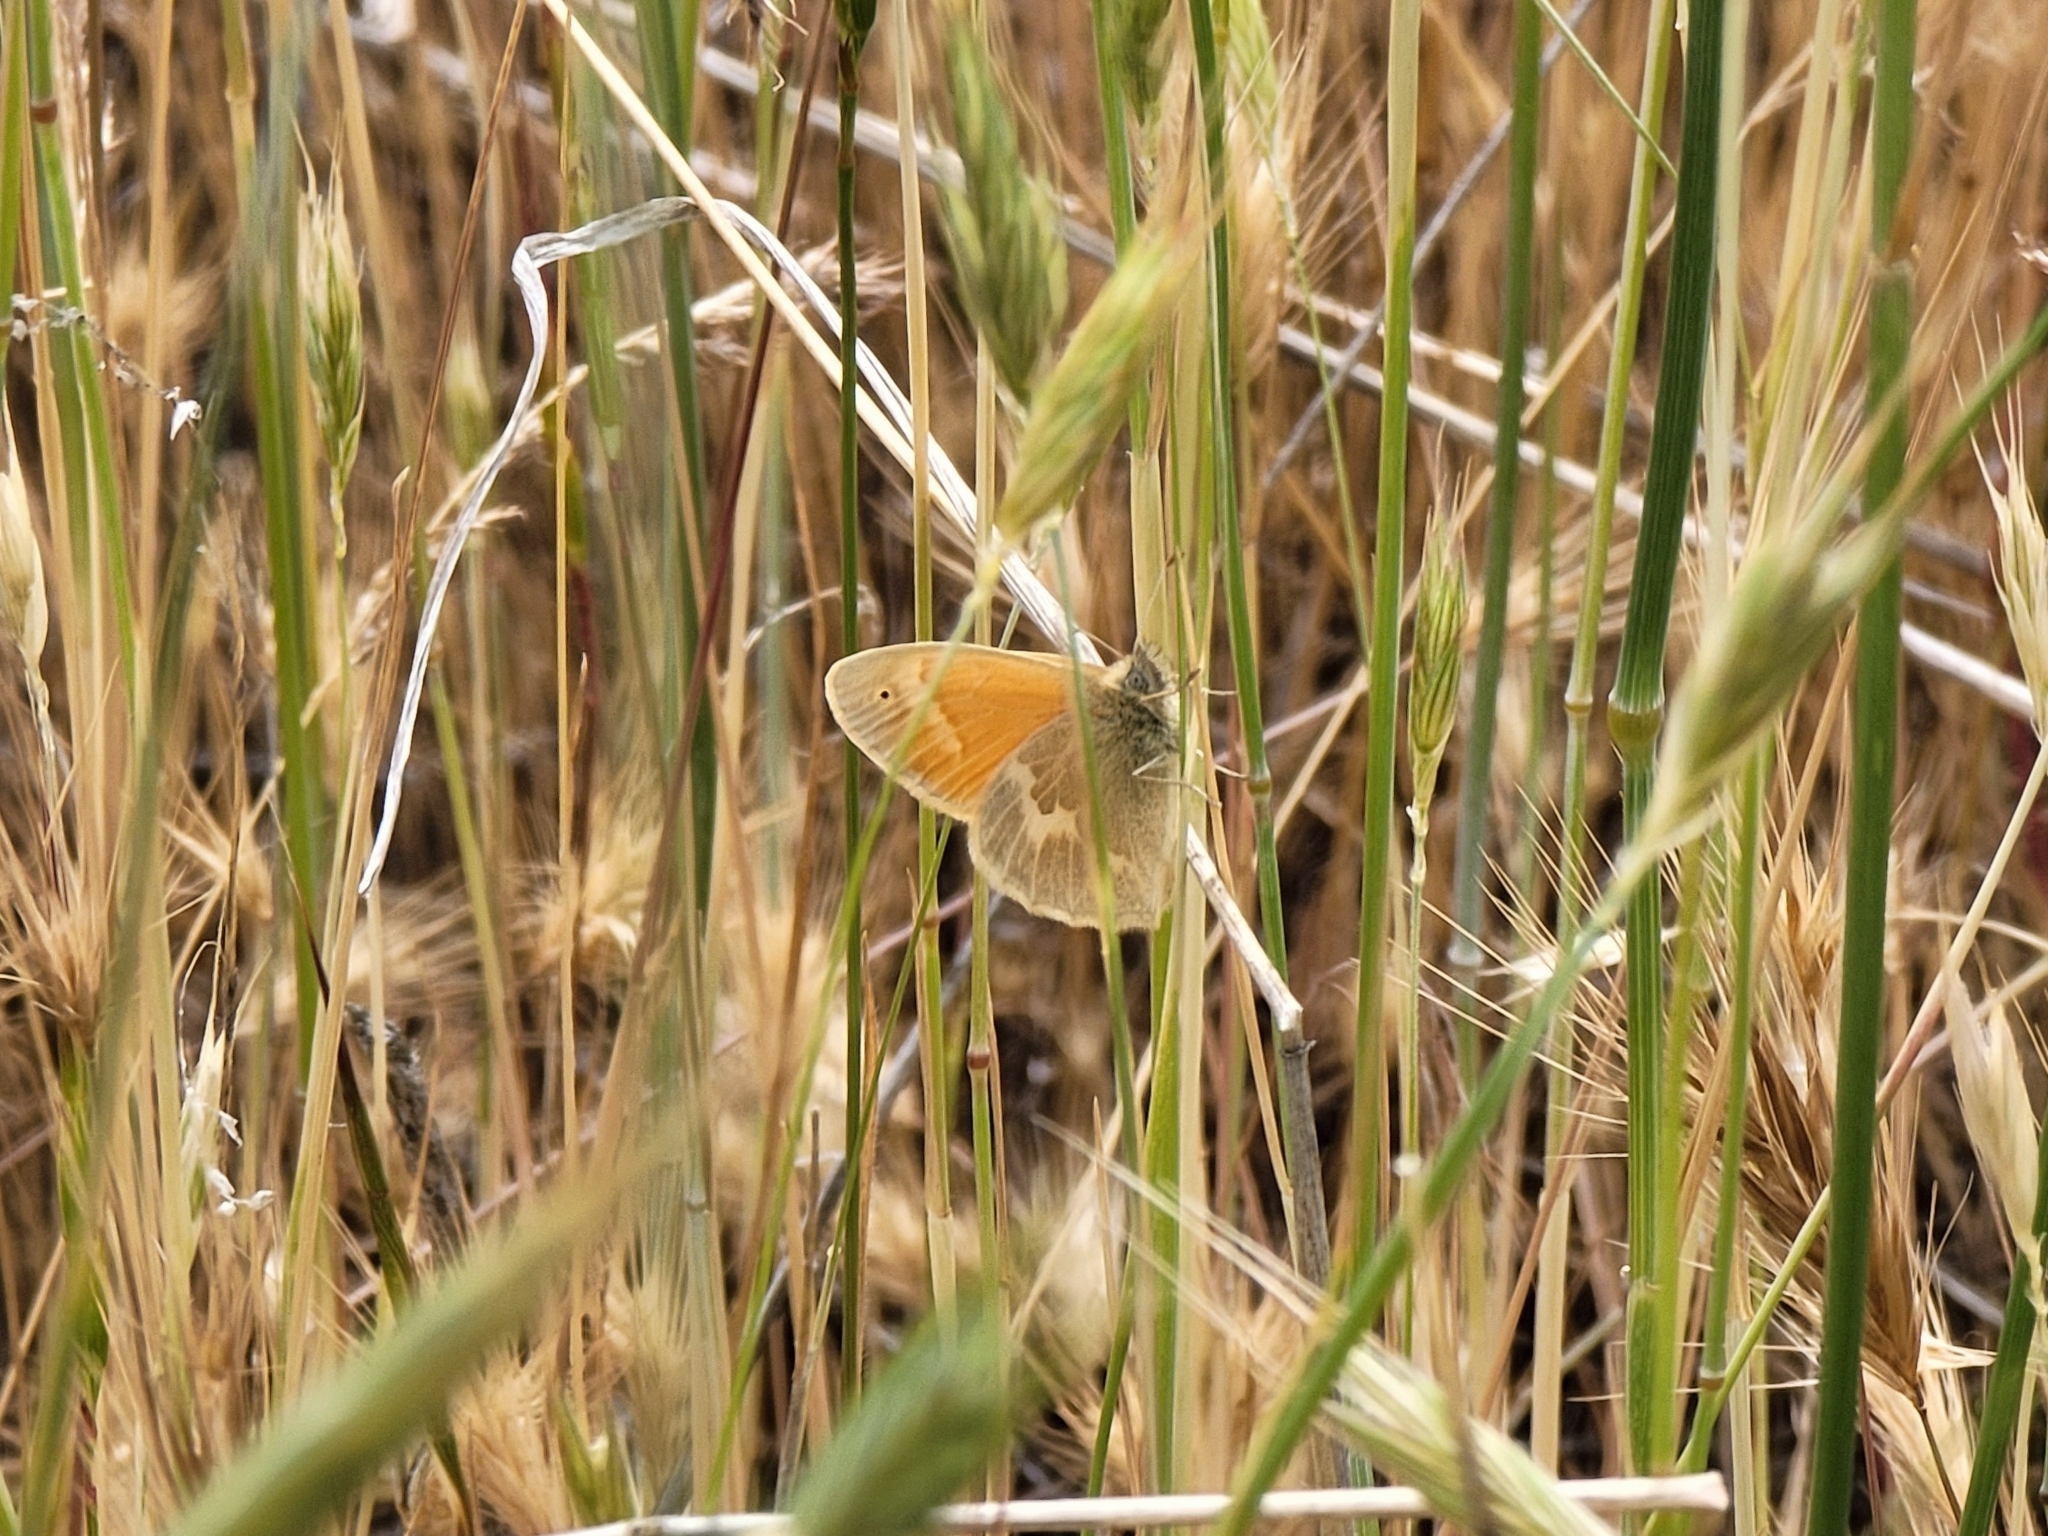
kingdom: Animalia
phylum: Arthropoda
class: Insecta
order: Lepidoptera
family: Nymphalidae
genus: Coenonympha
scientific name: Coenonympha california
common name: Common ringlet
